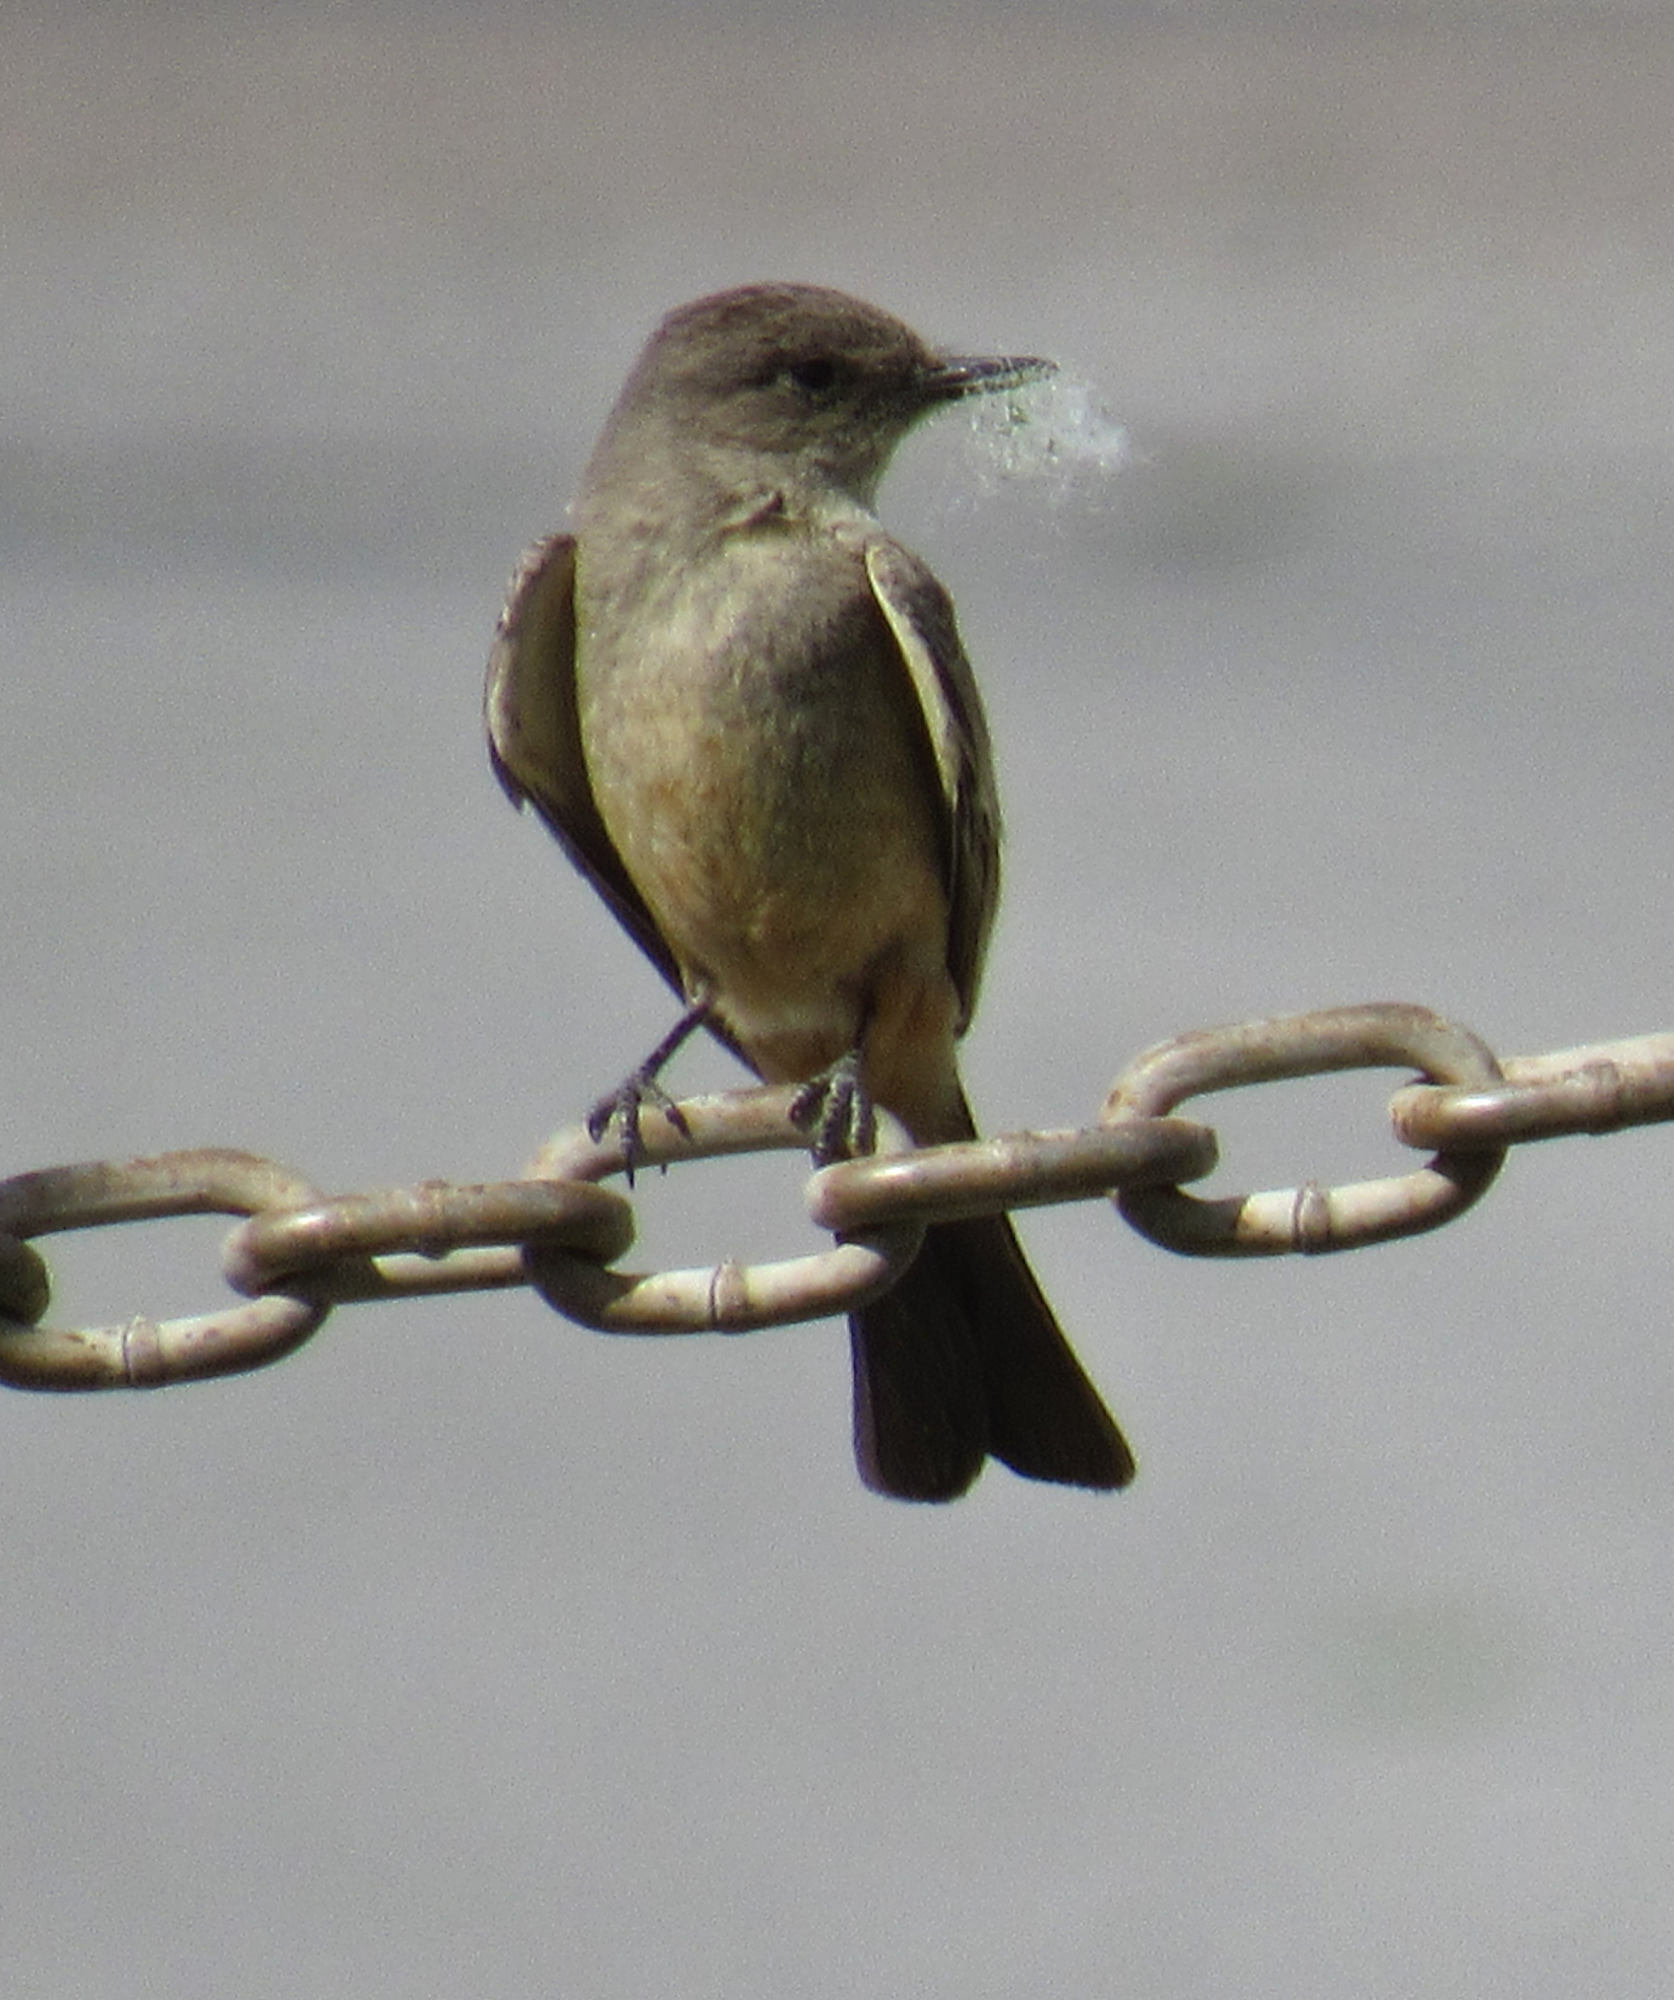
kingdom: Animalia
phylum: Chordata
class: Aves
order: Passeriformes
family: Tyrannidae
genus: Sayornis
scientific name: Sayornis saya
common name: Say's phoebe
